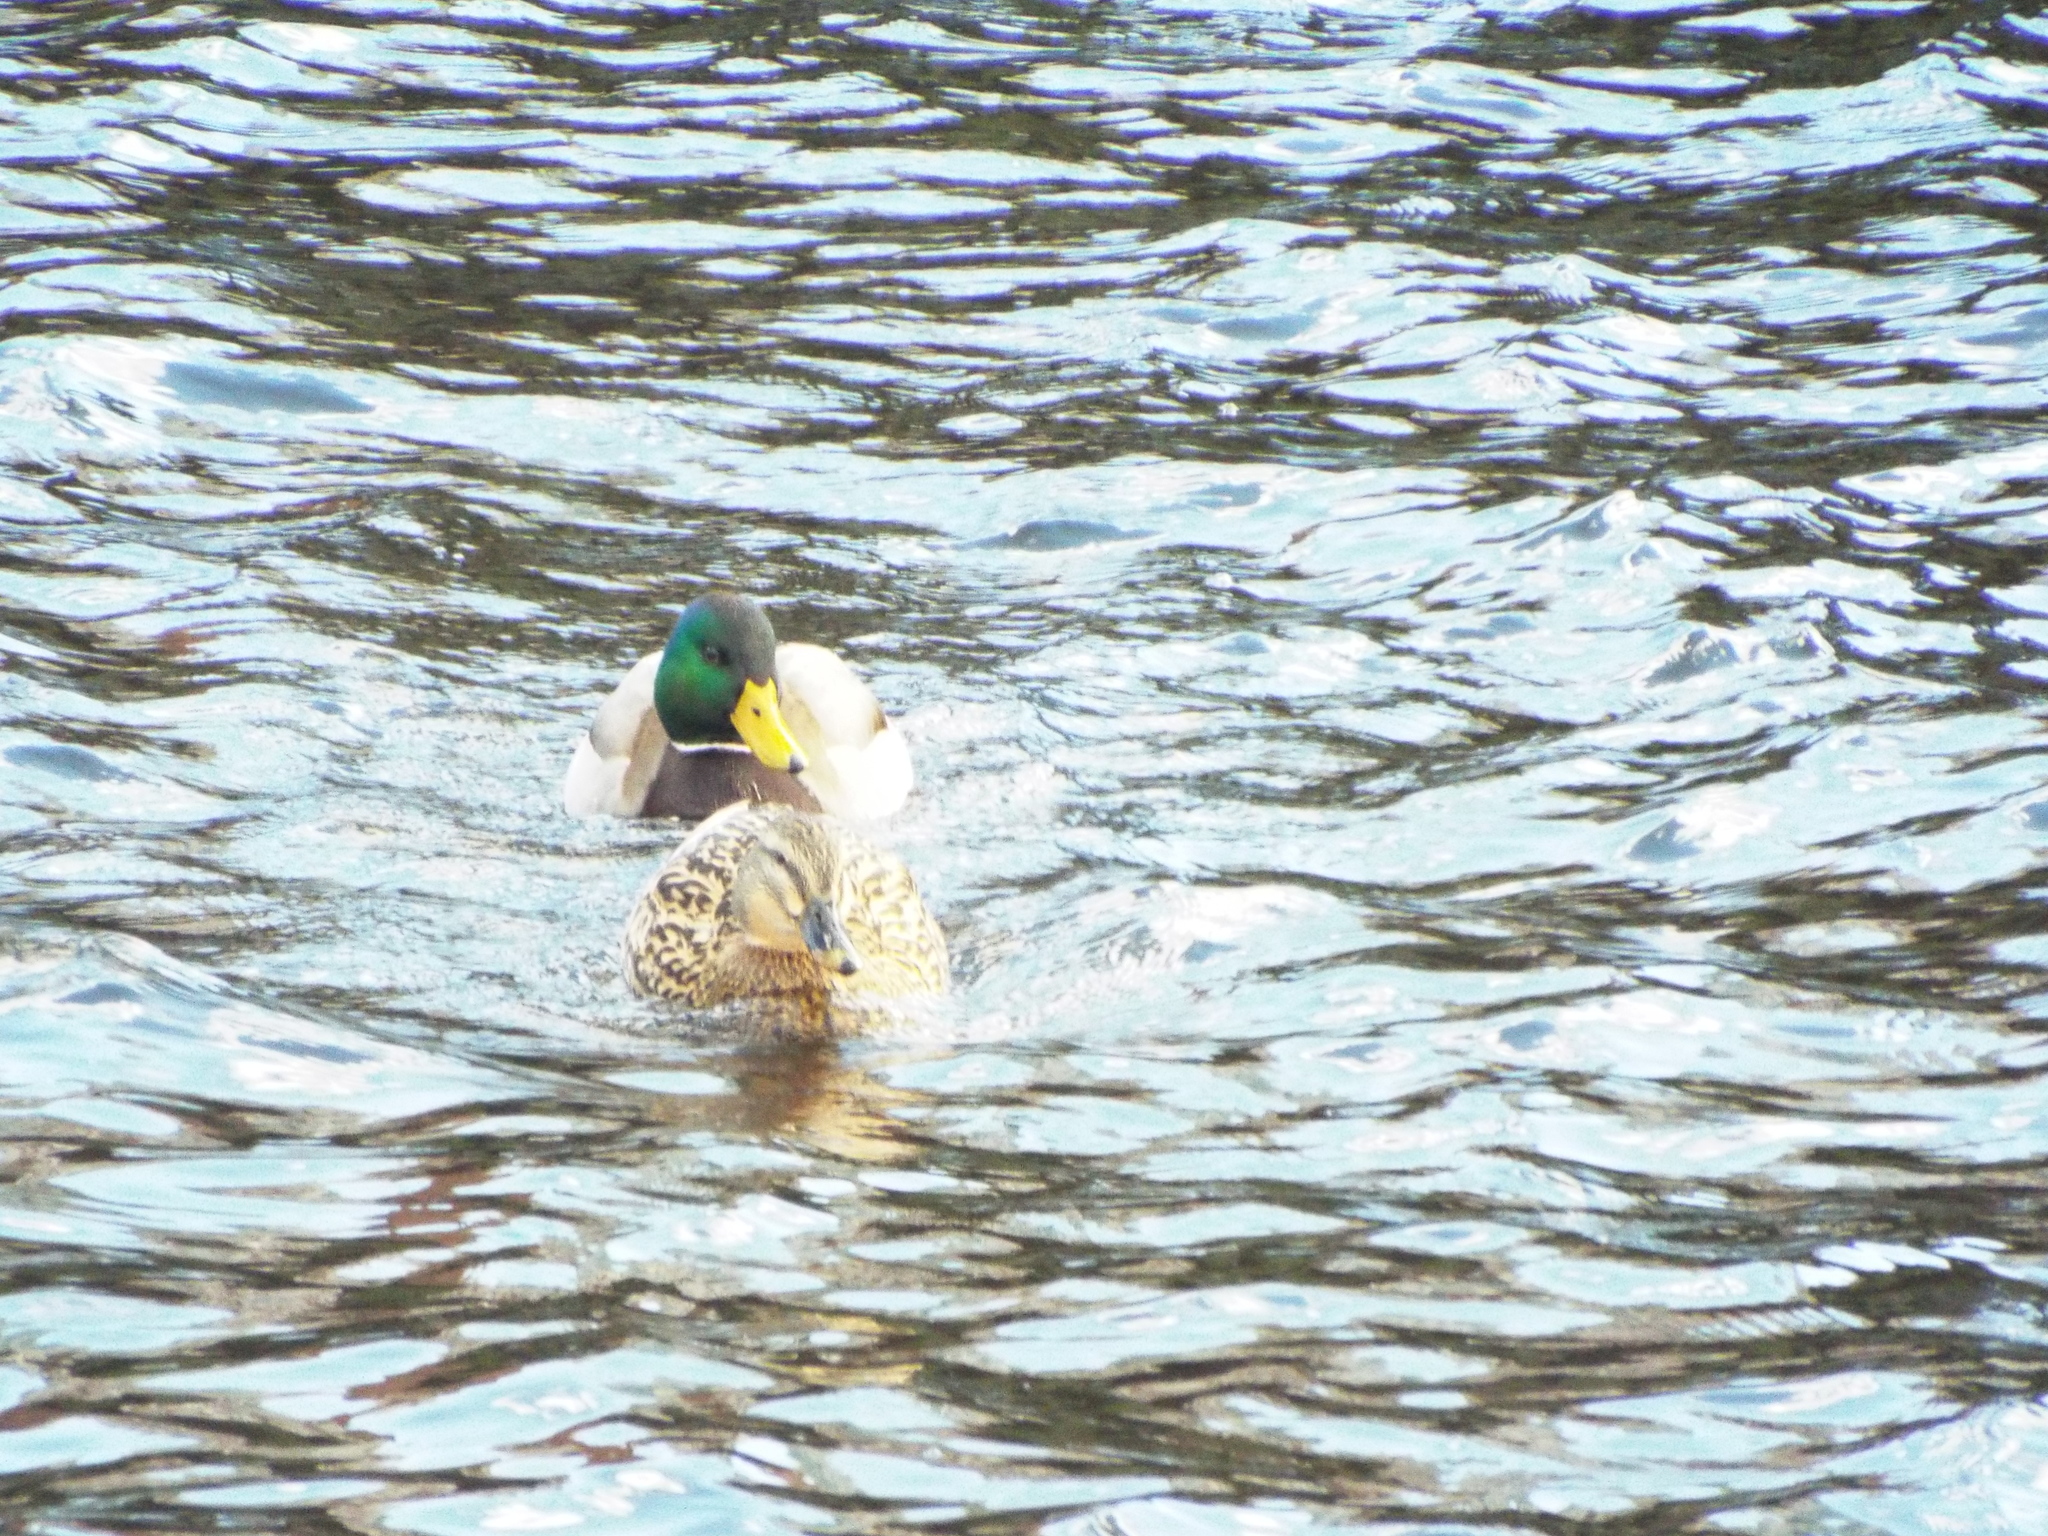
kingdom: Animalia
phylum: Chordata
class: Aves
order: Anseriformes
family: Anatidae
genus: Anas
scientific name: Anas platyrhynchos
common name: Mallard
